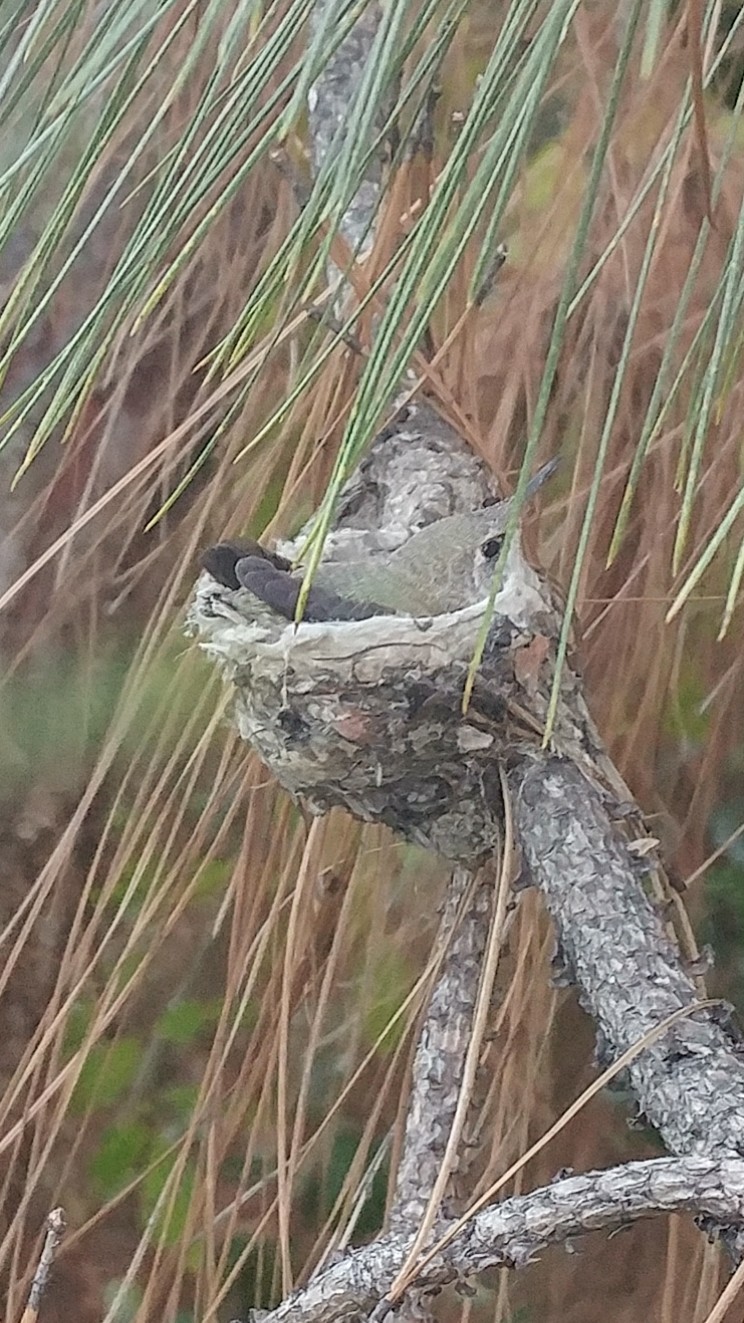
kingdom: Animalia
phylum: Chordata
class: Aves
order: Apodiformes
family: Trochilidae
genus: Calypte
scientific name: Calypte anna
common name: Anna's hummingbird
